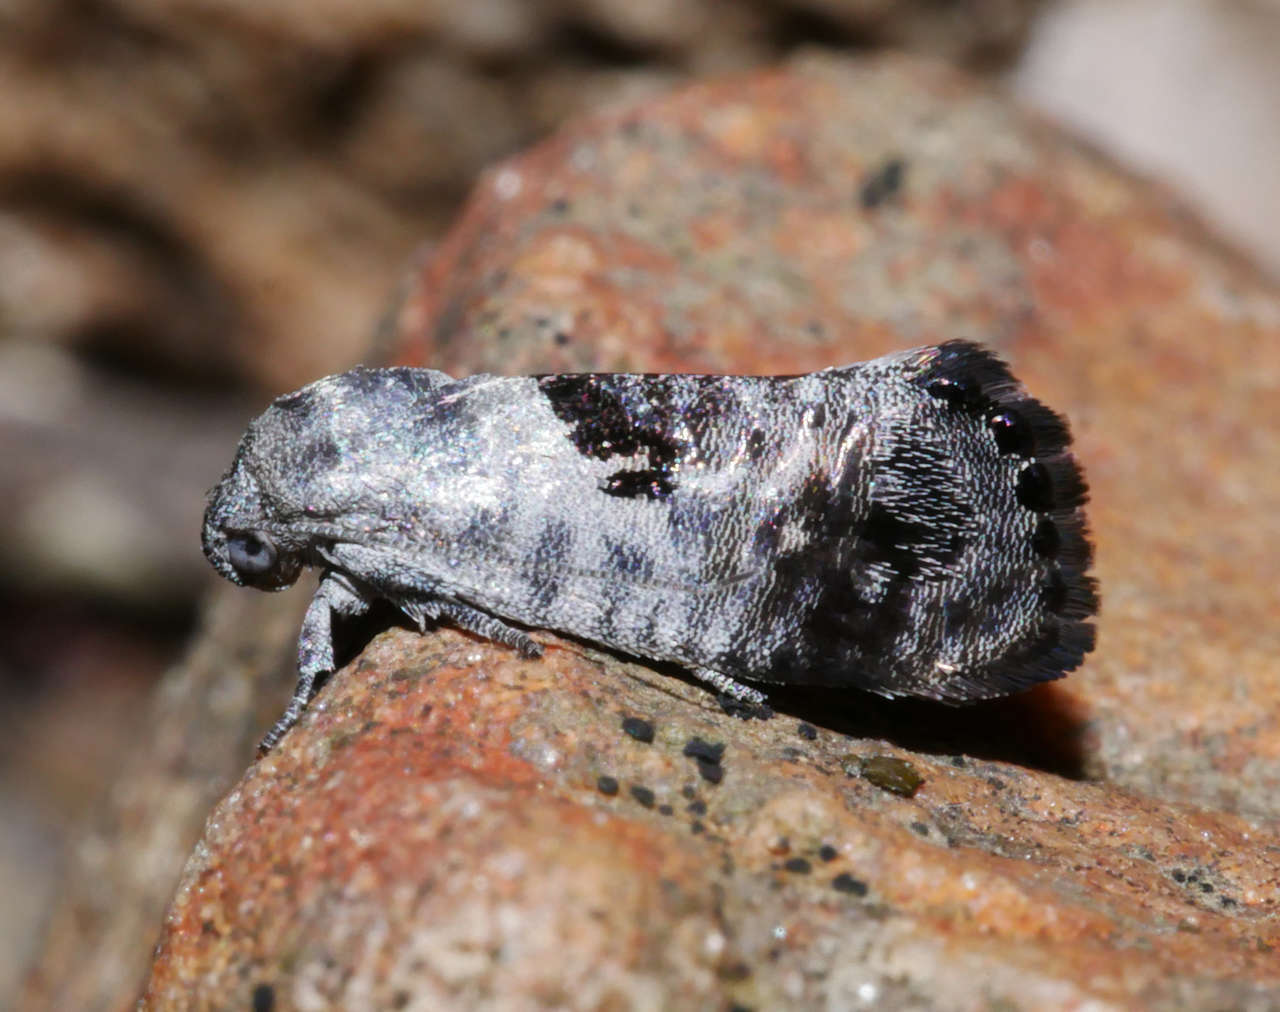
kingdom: Animalia
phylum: Arthropoda
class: Insecta
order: Lepidoptera
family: Depressariidae
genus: Eupselia
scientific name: Eupselia carpocapsella
